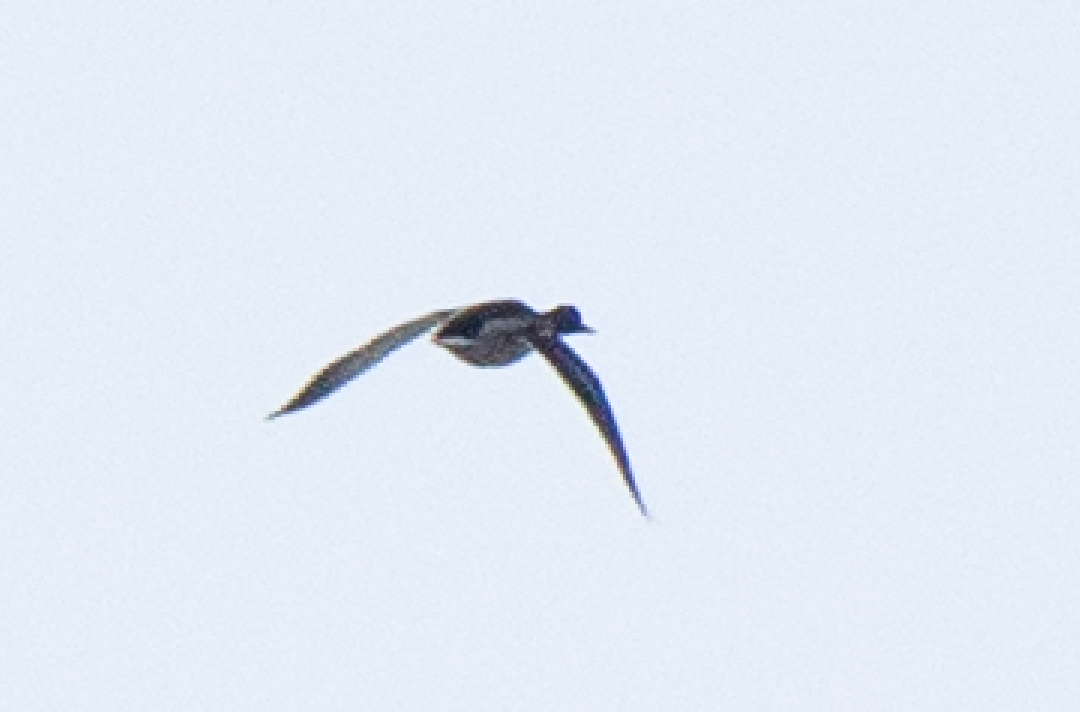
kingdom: Animalia
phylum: Chordata
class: Aves
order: Anseriformes
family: Anatidae
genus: Anas
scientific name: Anas platyrhynchos
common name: Mallard
